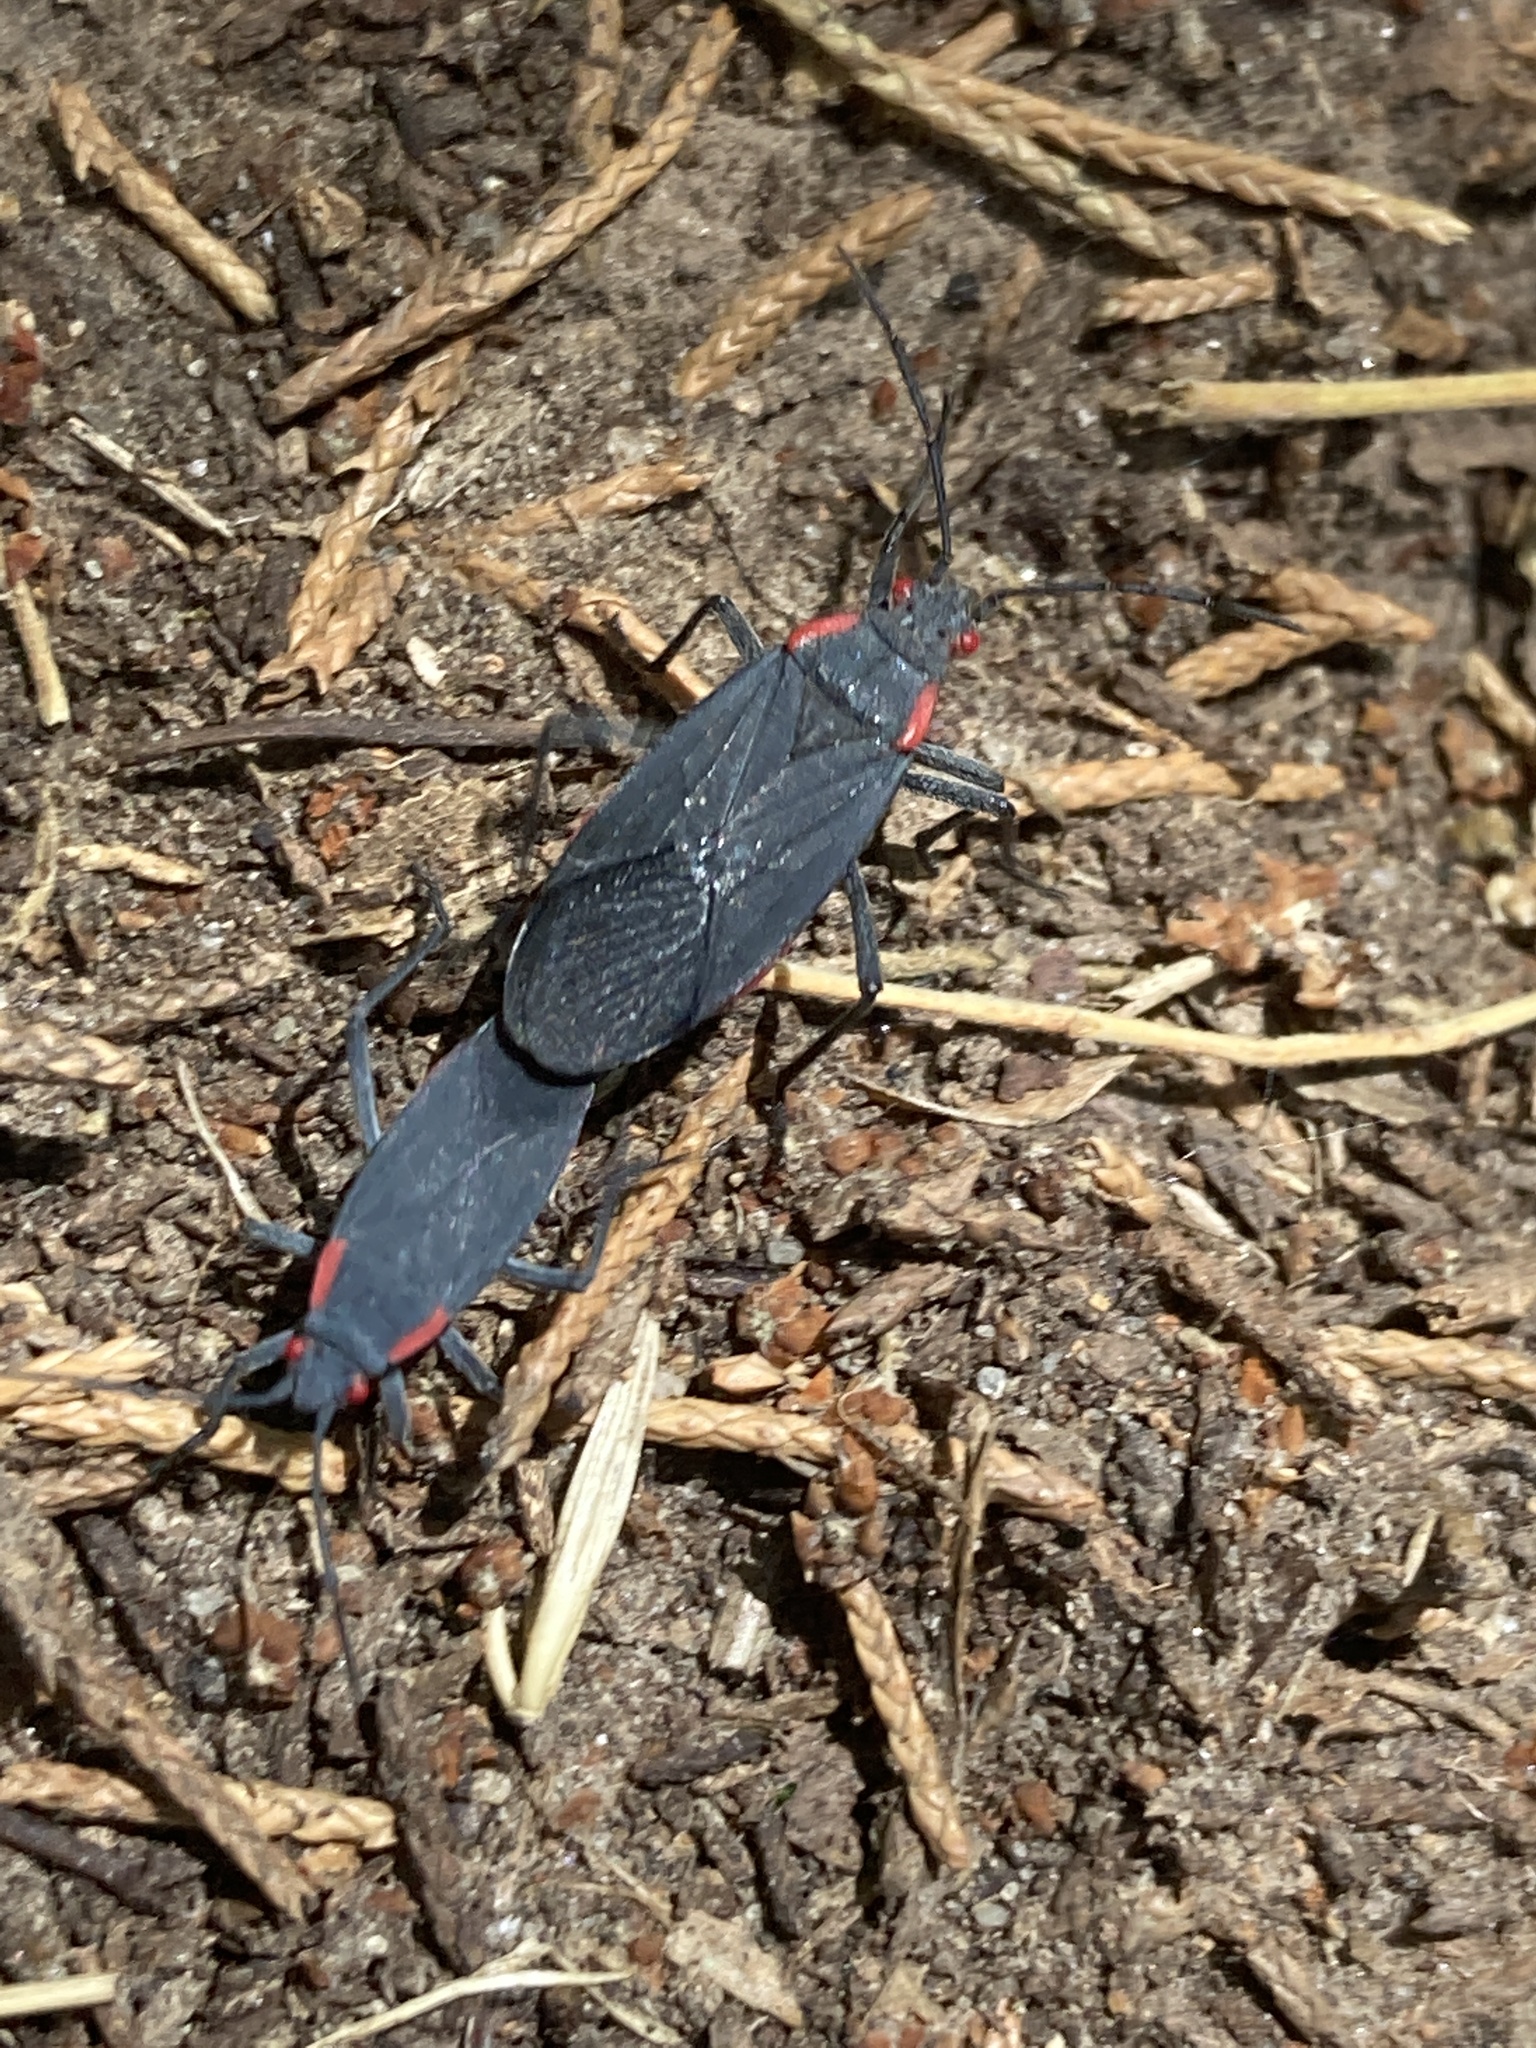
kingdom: Animalia
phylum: Arthropoda
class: Insecta
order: Hemiptera
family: Rhopalidae
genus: Jadera
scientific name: Jadera haematoloma
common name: Red-shouldered bug
